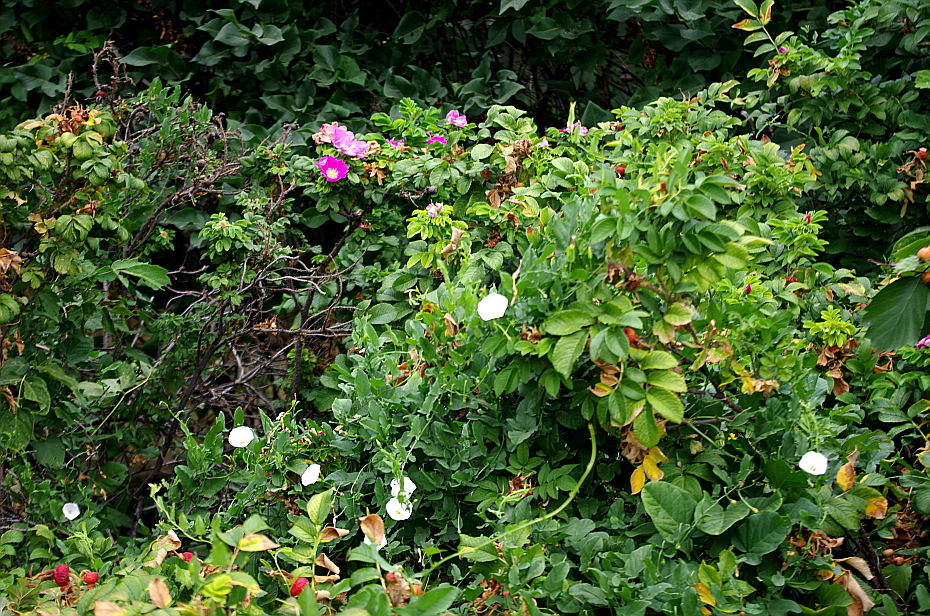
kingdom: Plantae
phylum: Tracheophyta
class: Magnoliopsida
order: Solanales
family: Convolvulaceae
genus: Convolvulus
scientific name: Convolvulus arvensis
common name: Field bindweed
